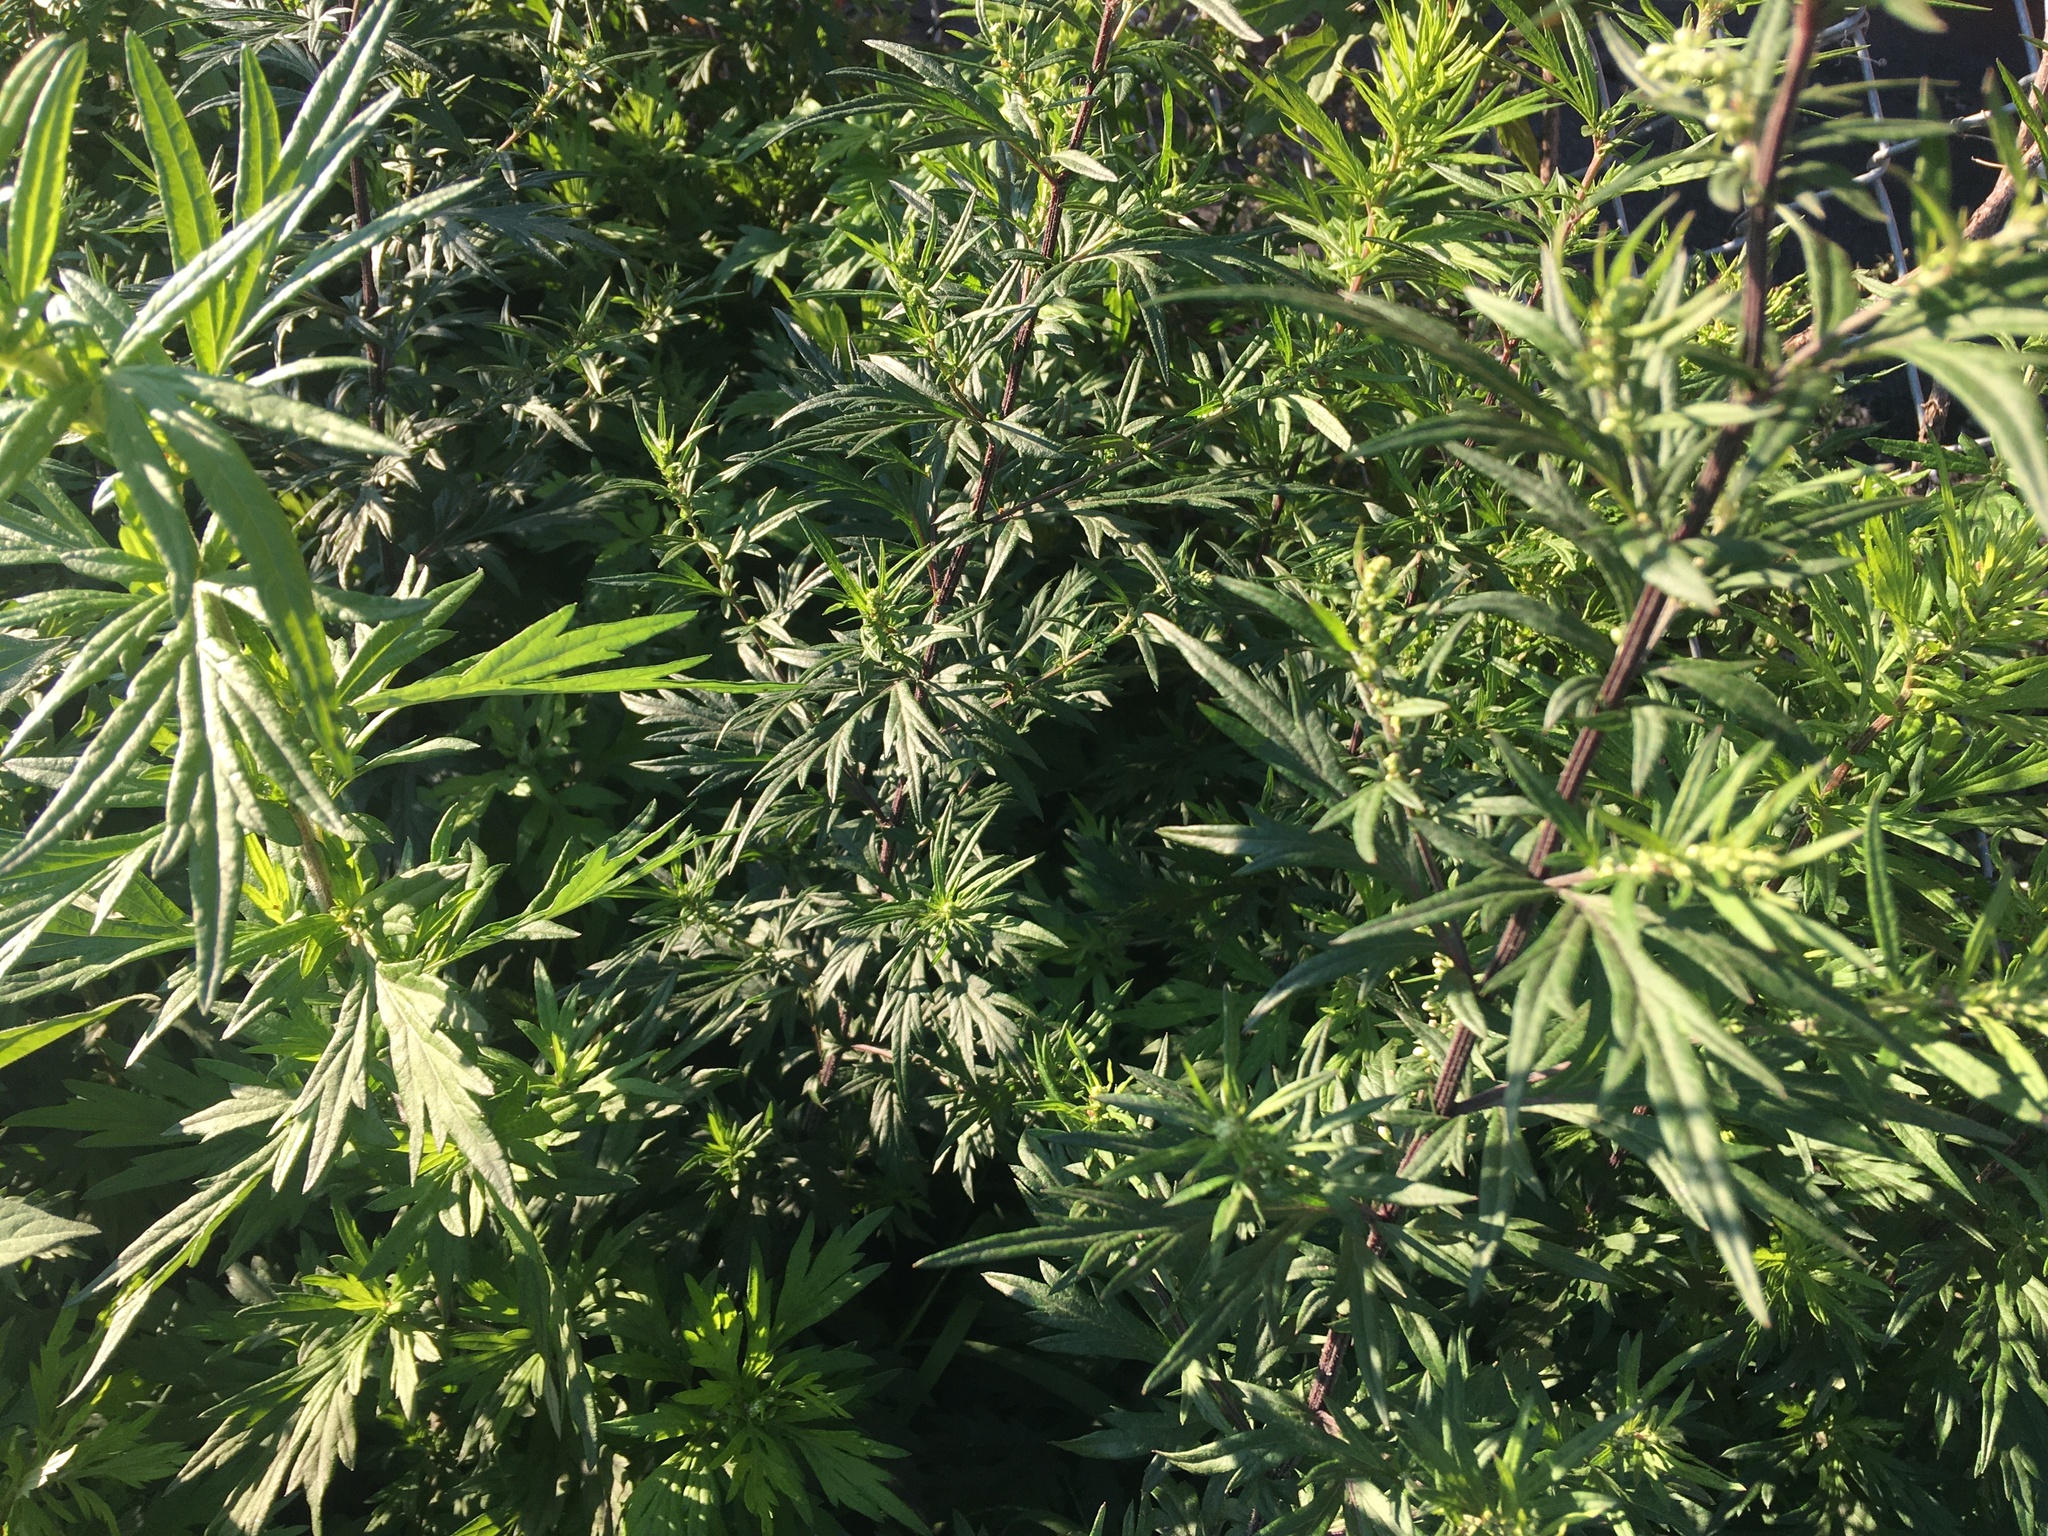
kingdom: Plantae
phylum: Tracheophyta
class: Magnoliopsida
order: Asterales
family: Asteraceae
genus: Artemisia
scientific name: Artemisia vulgaris
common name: Mugwort
